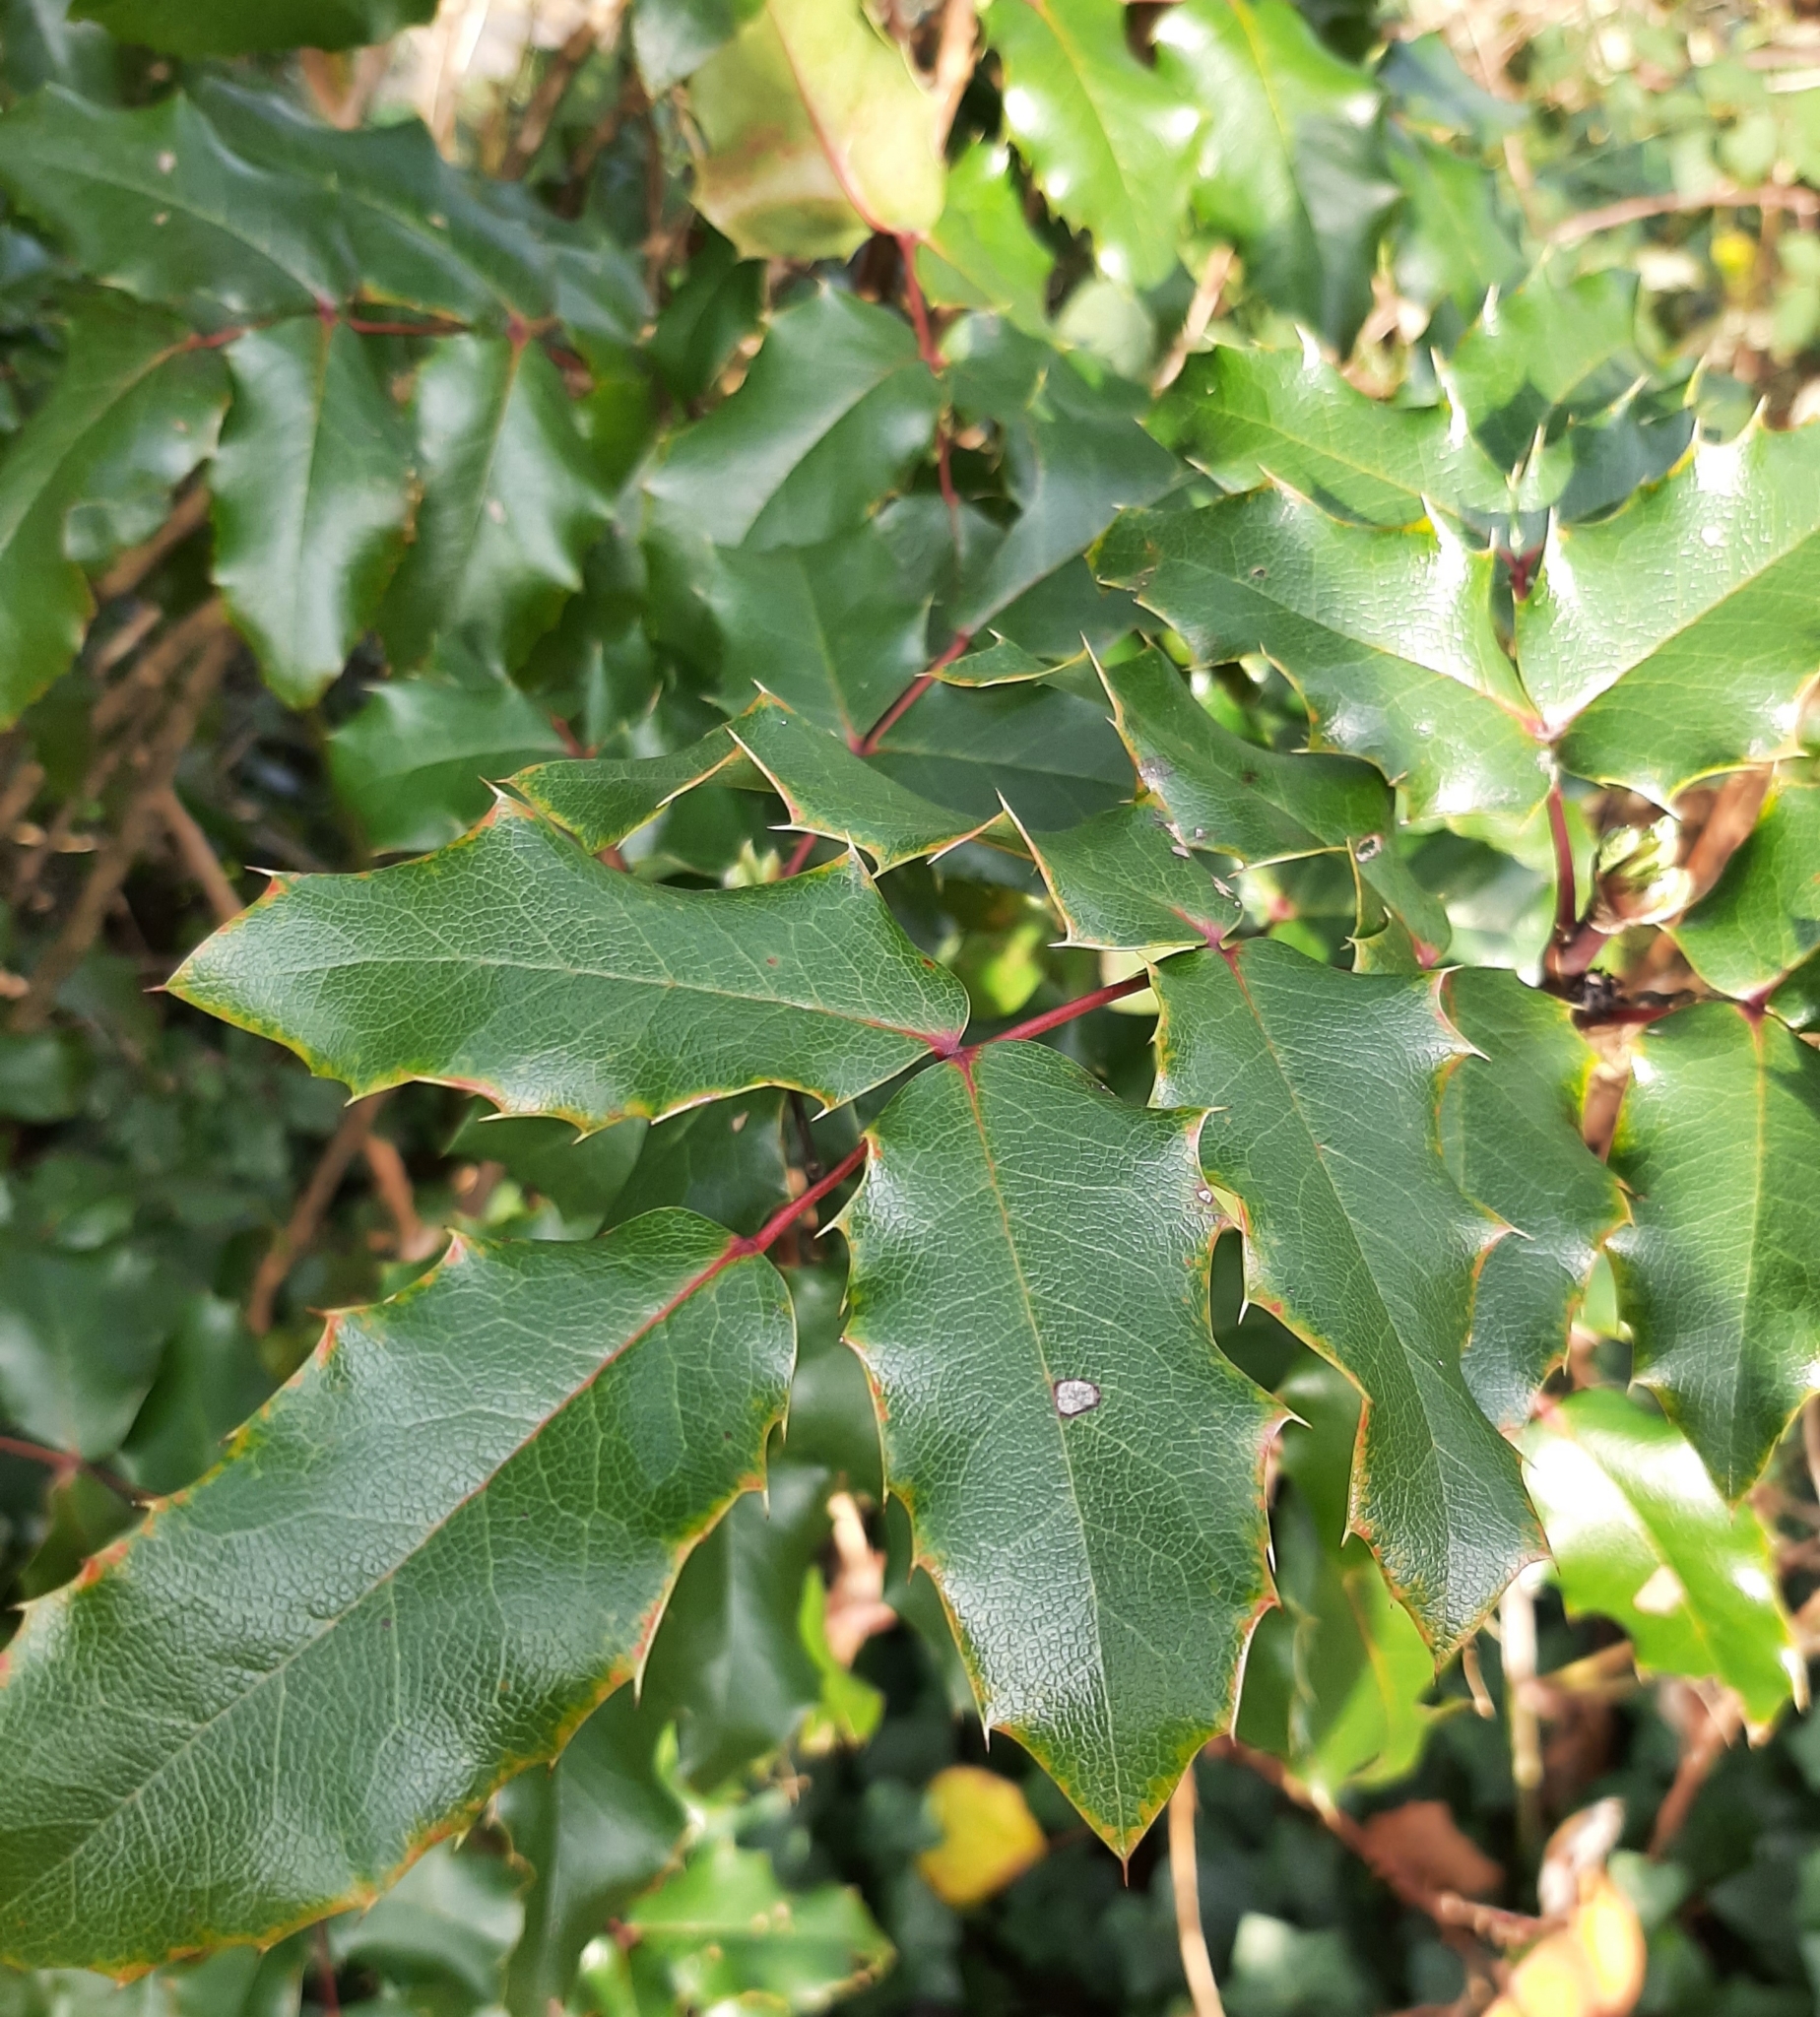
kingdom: Plantae
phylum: Tracheophyta
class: Magnoliopsida
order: Ranunculales
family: Berberidaceae
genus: Mahonia
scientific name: Mahonia aquifolium
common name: Oregon-grape
